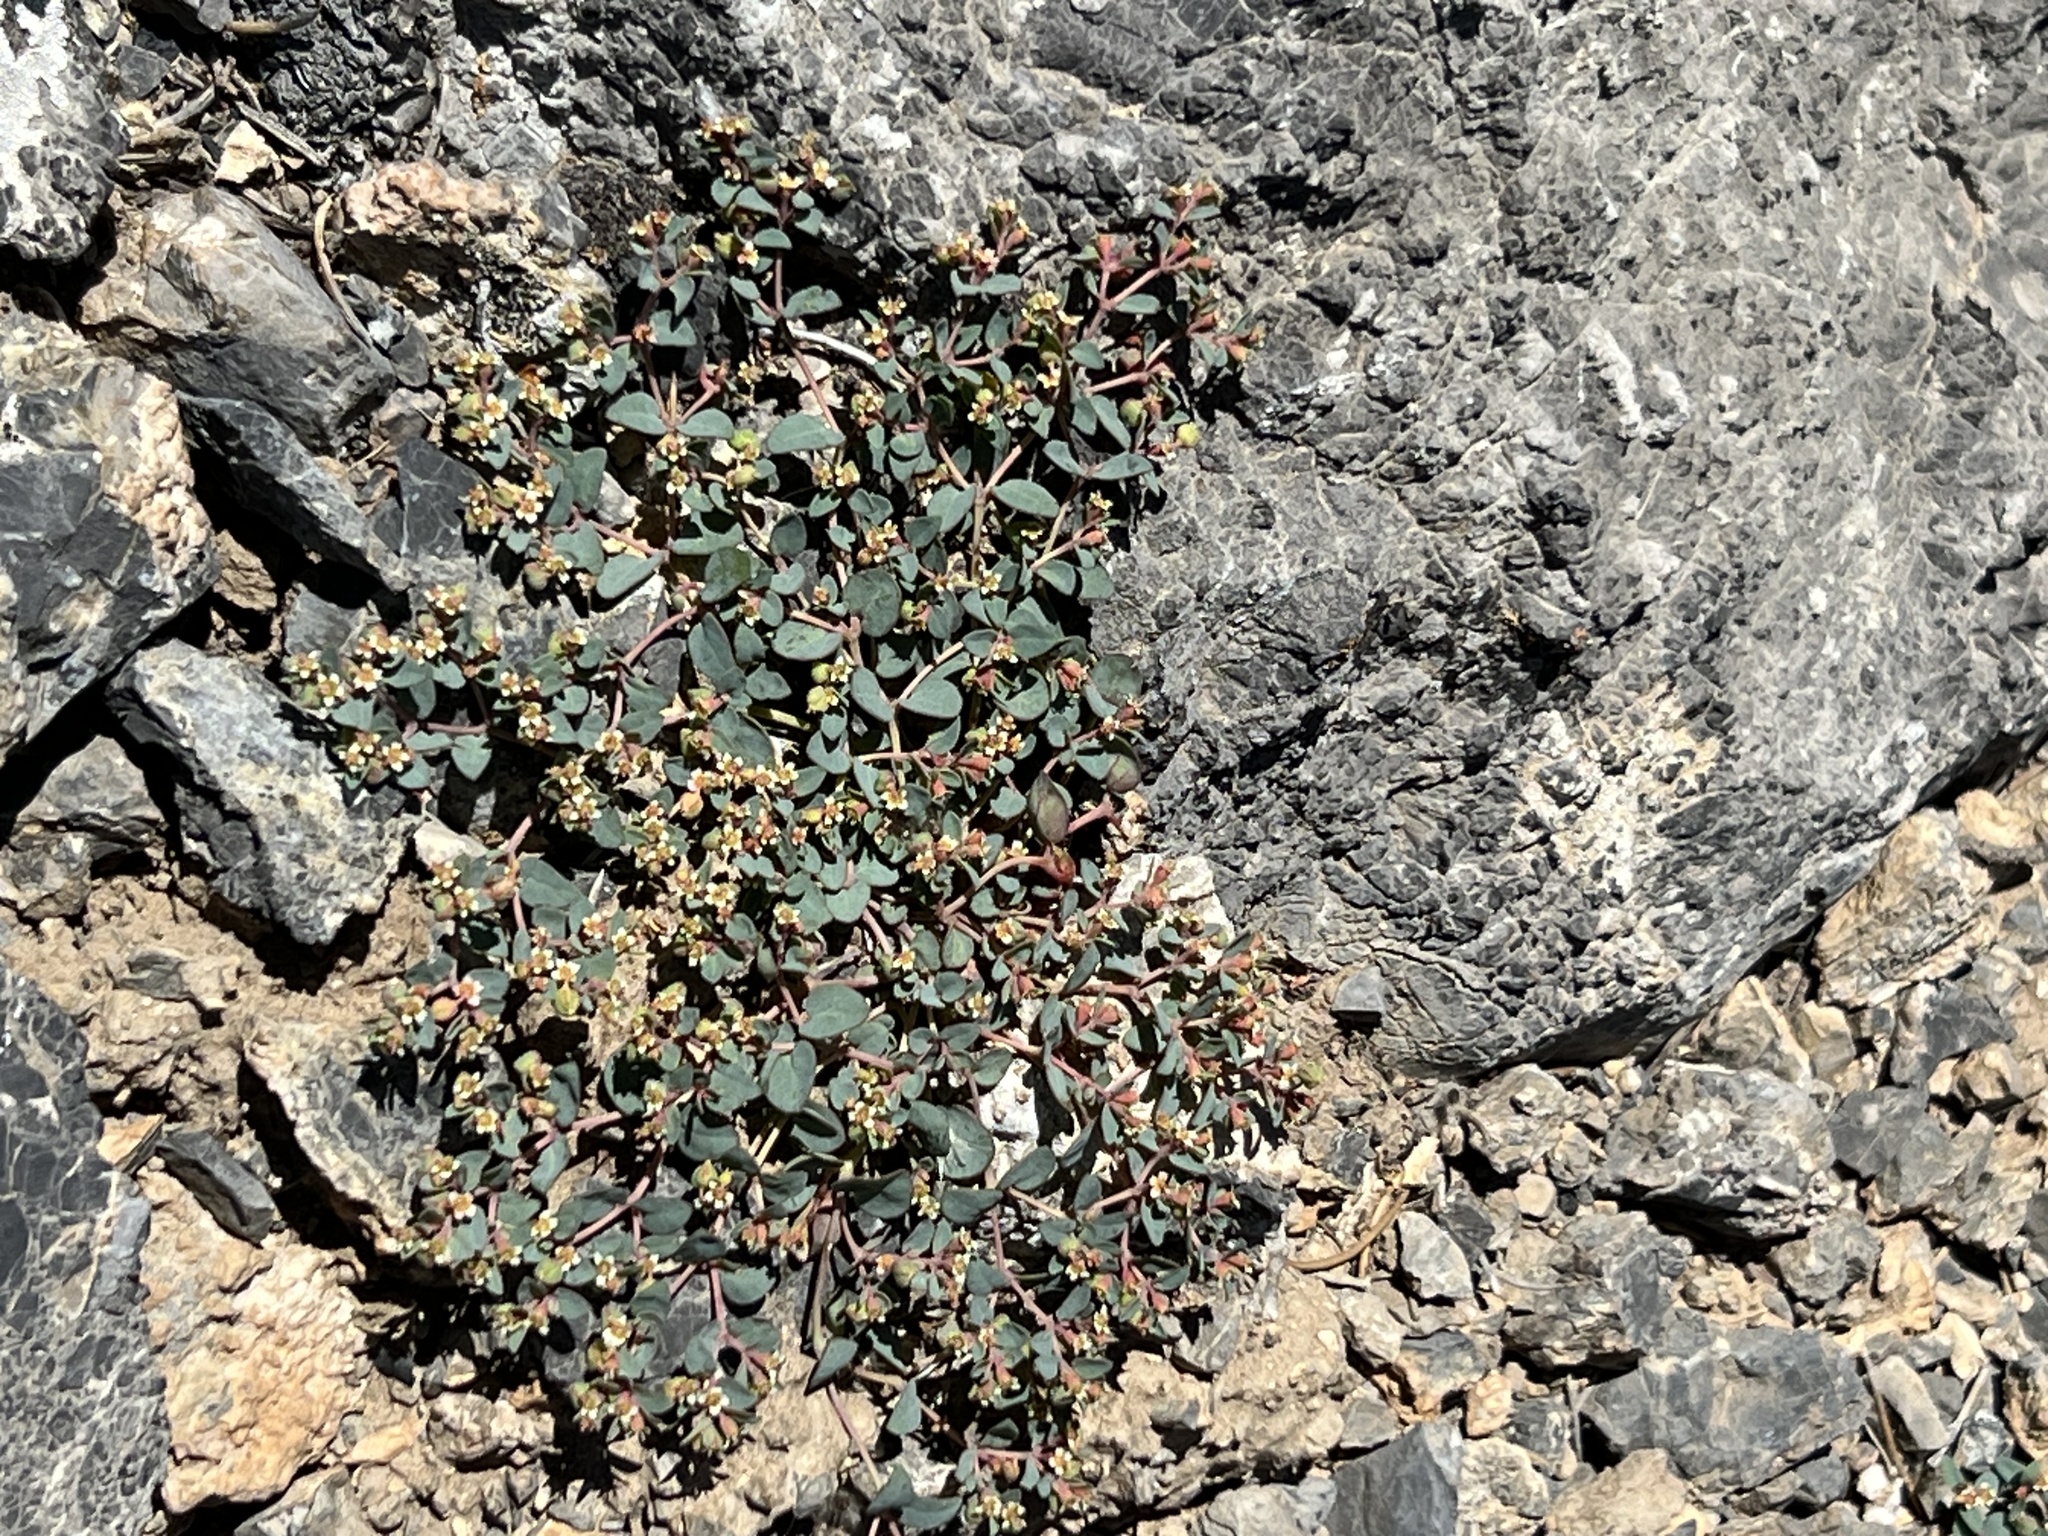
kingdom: Plantae
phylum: Tracheophyta
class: Magnoliopsida
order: Malpighiales
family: Euphorbiaceae
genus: Euphorbia
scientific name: Euphorbia fendleri
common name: Fendler's euphorbia
